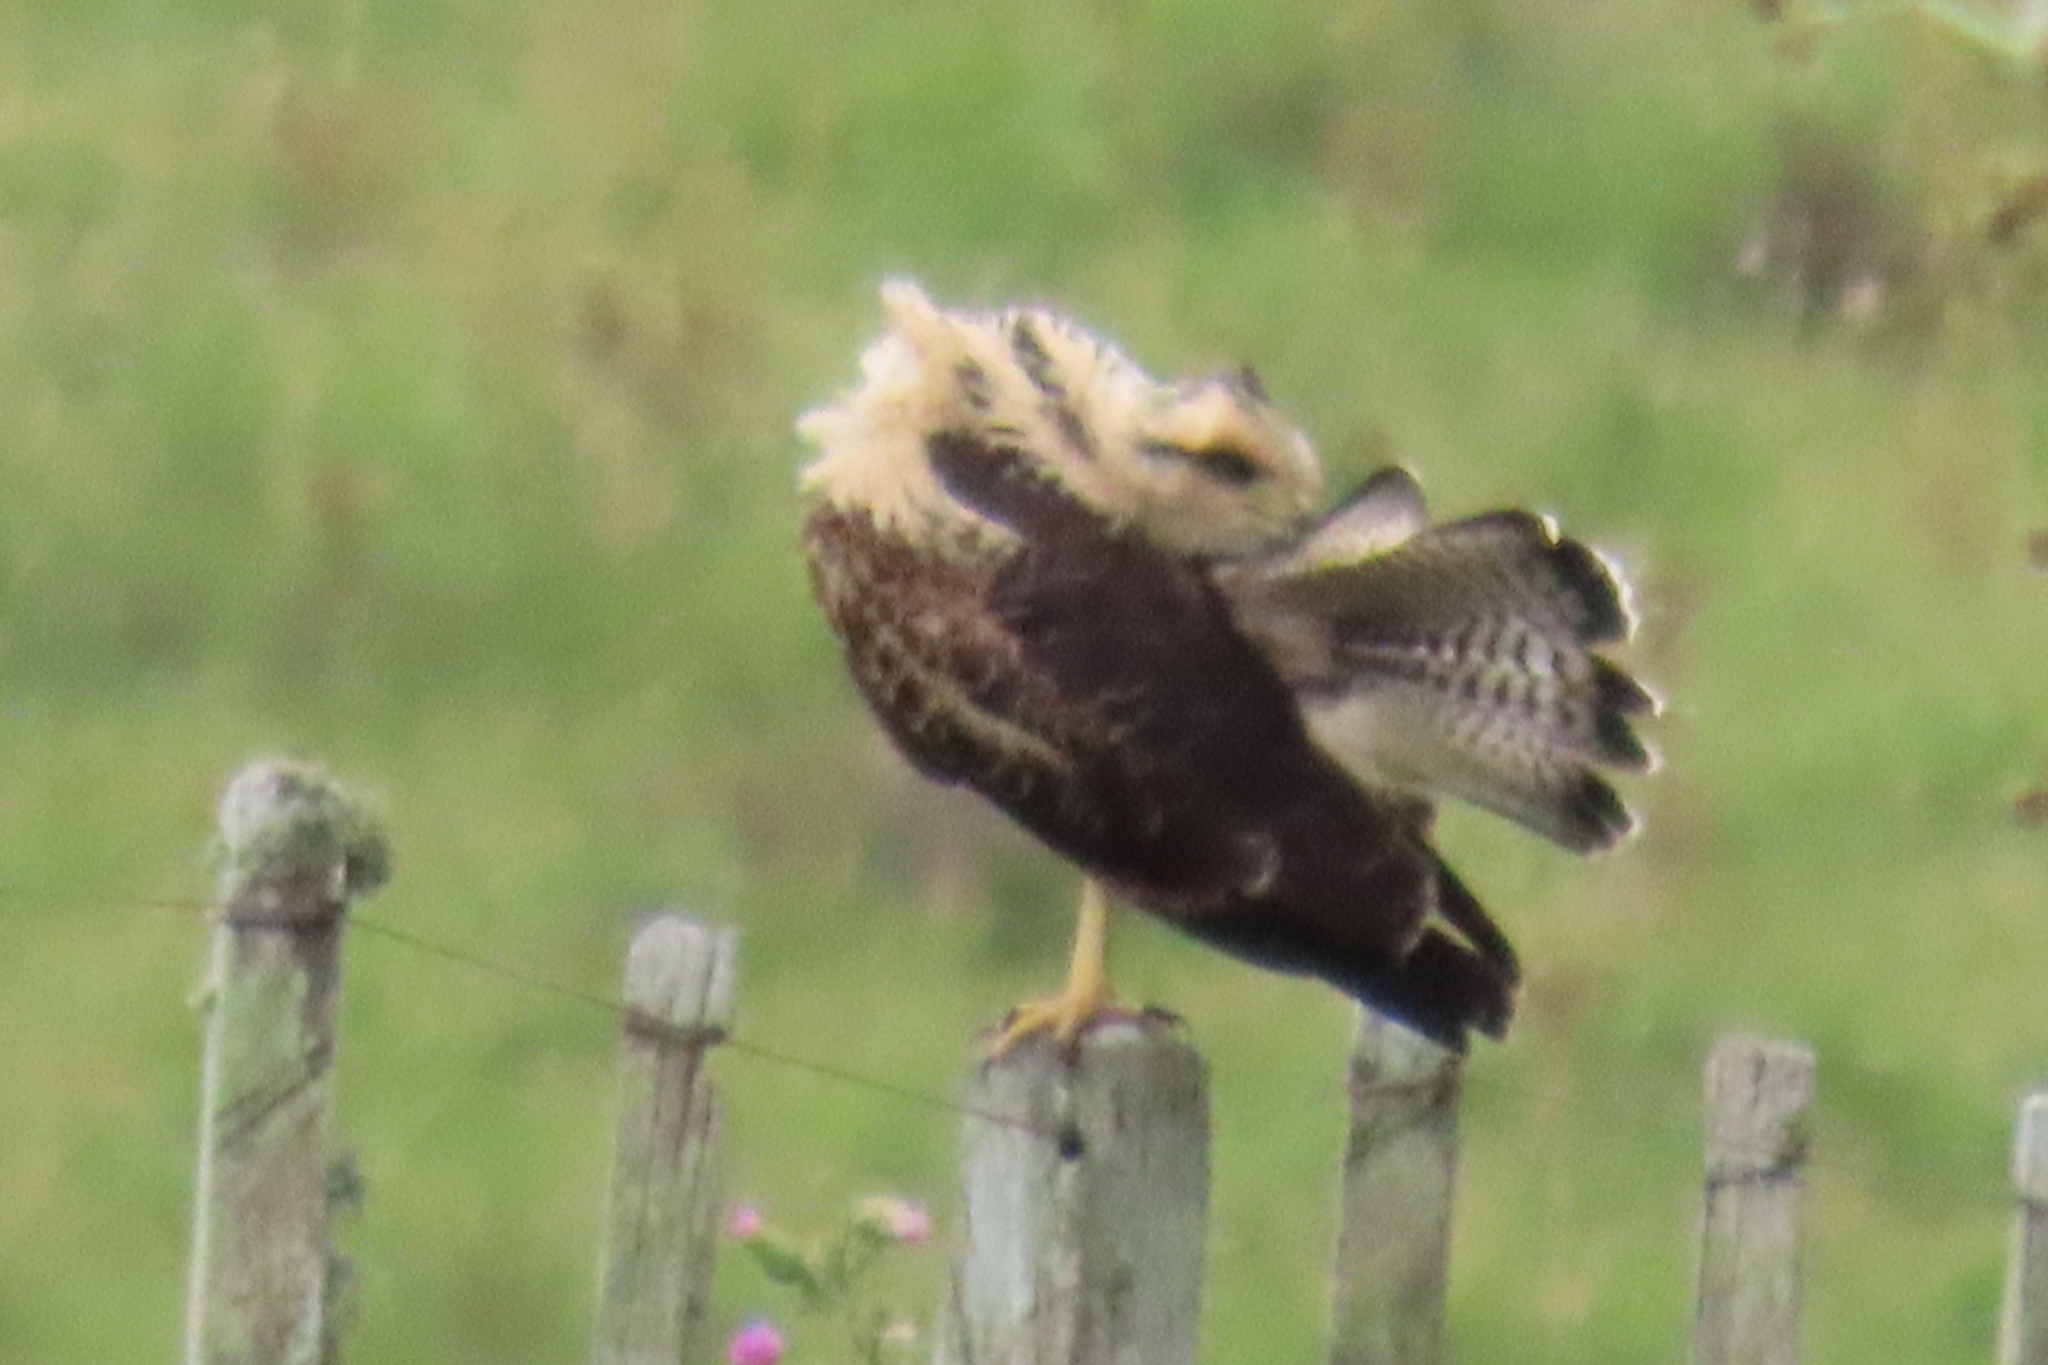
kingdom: Animalia
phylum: Chordata
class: Aves
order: Accipitriformes
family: Accipitridae
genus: Buteogallus
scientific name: Buteogallus meridionalis
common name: Savanna hawk
